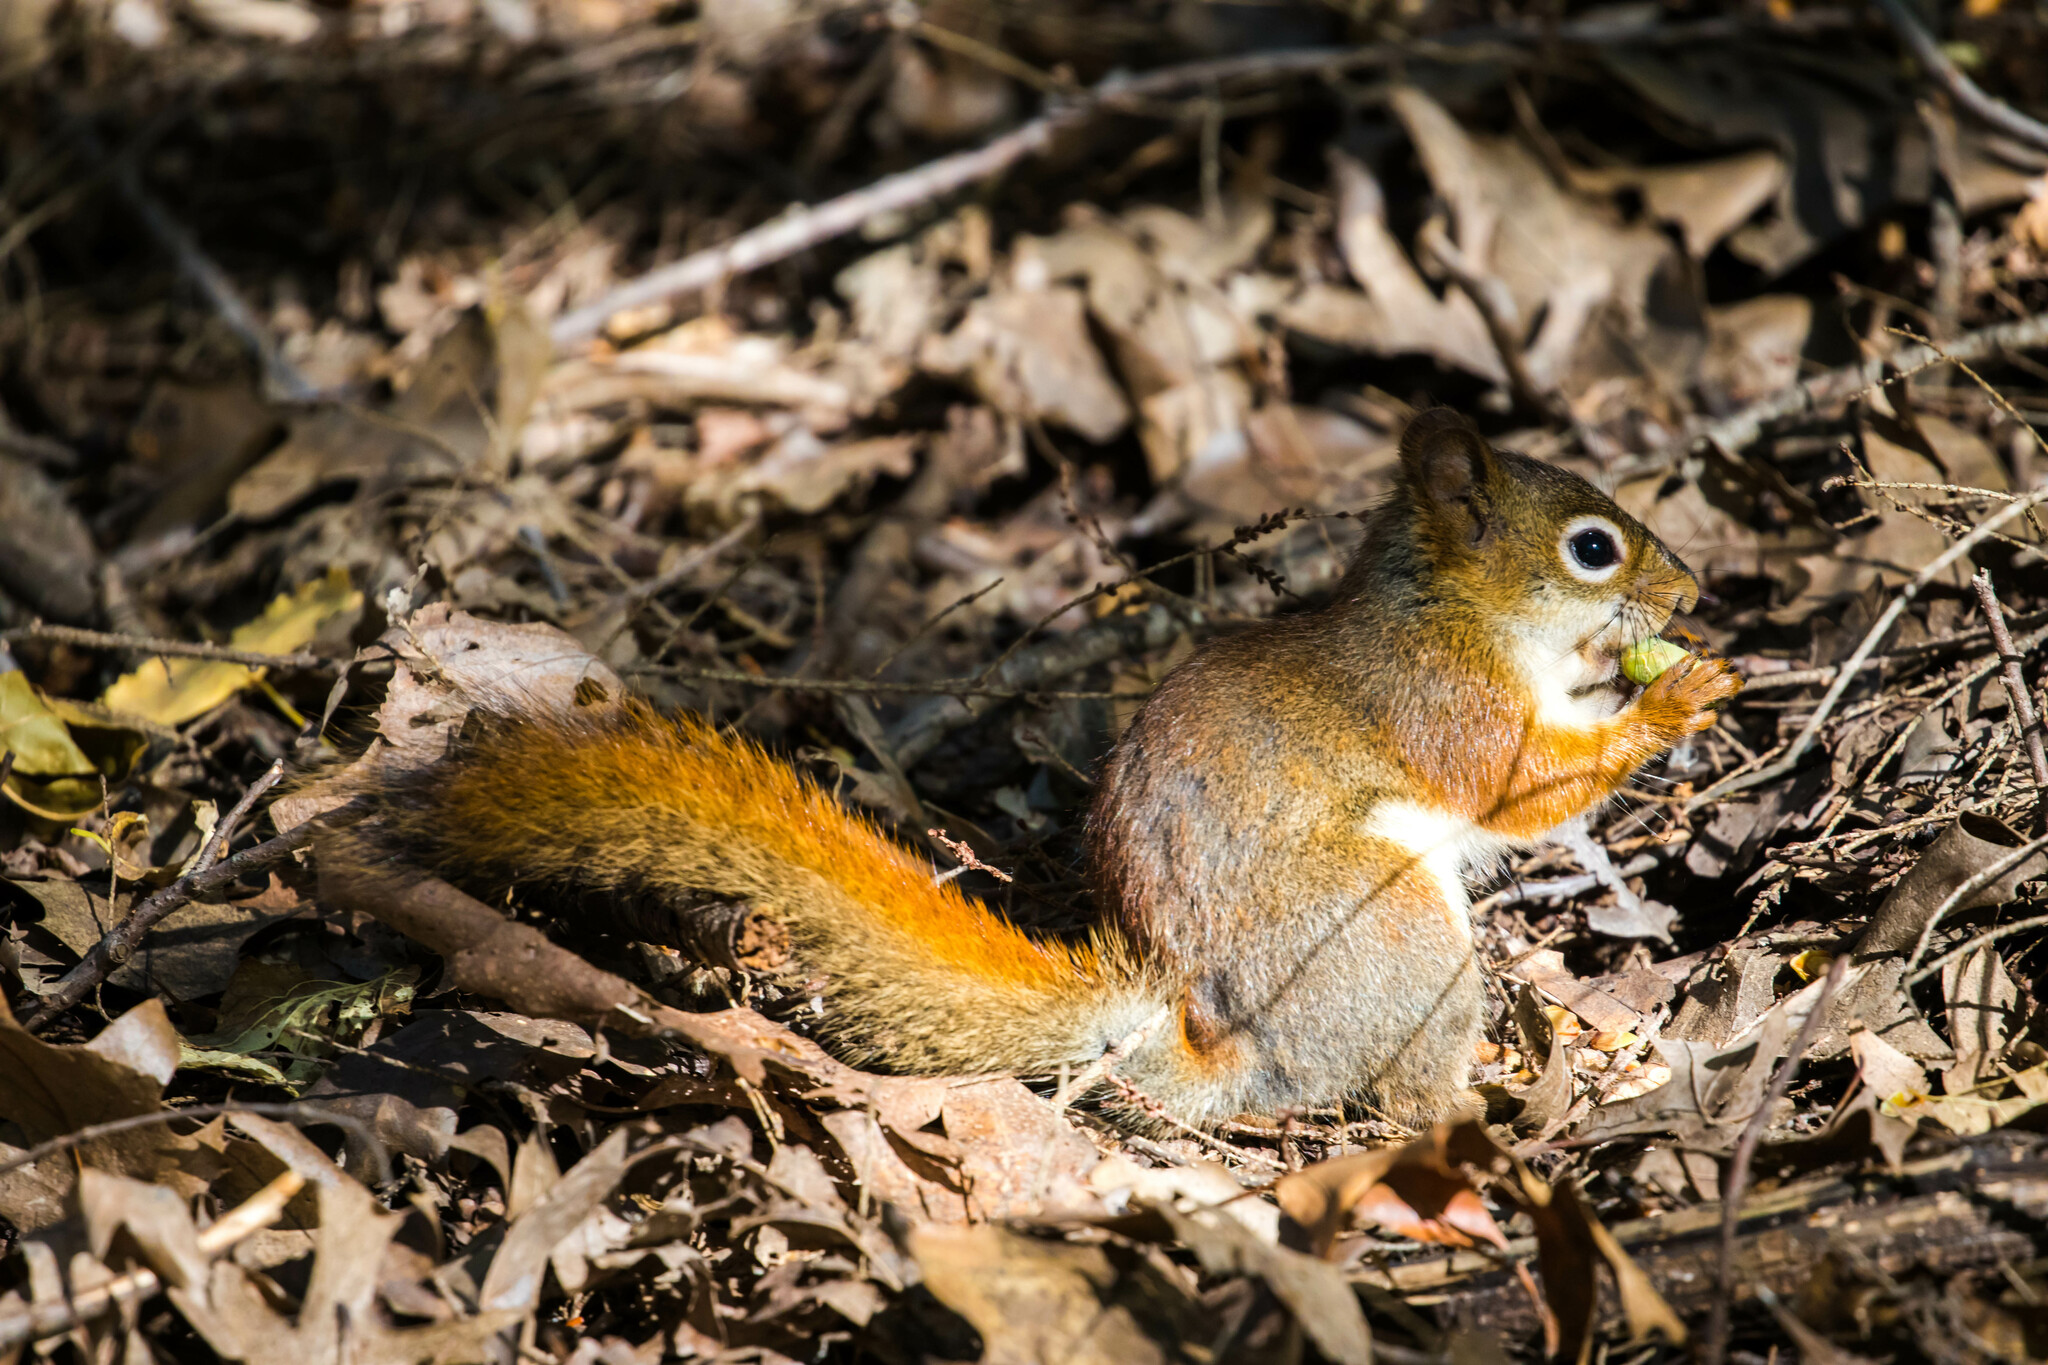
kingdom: Animalia
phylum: Chordata
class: Mammalia
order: Rodentia
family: Sciuridae
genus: Tamiasciurus
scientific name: Tamiasciurus hudsonicus
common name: Red squirrel
